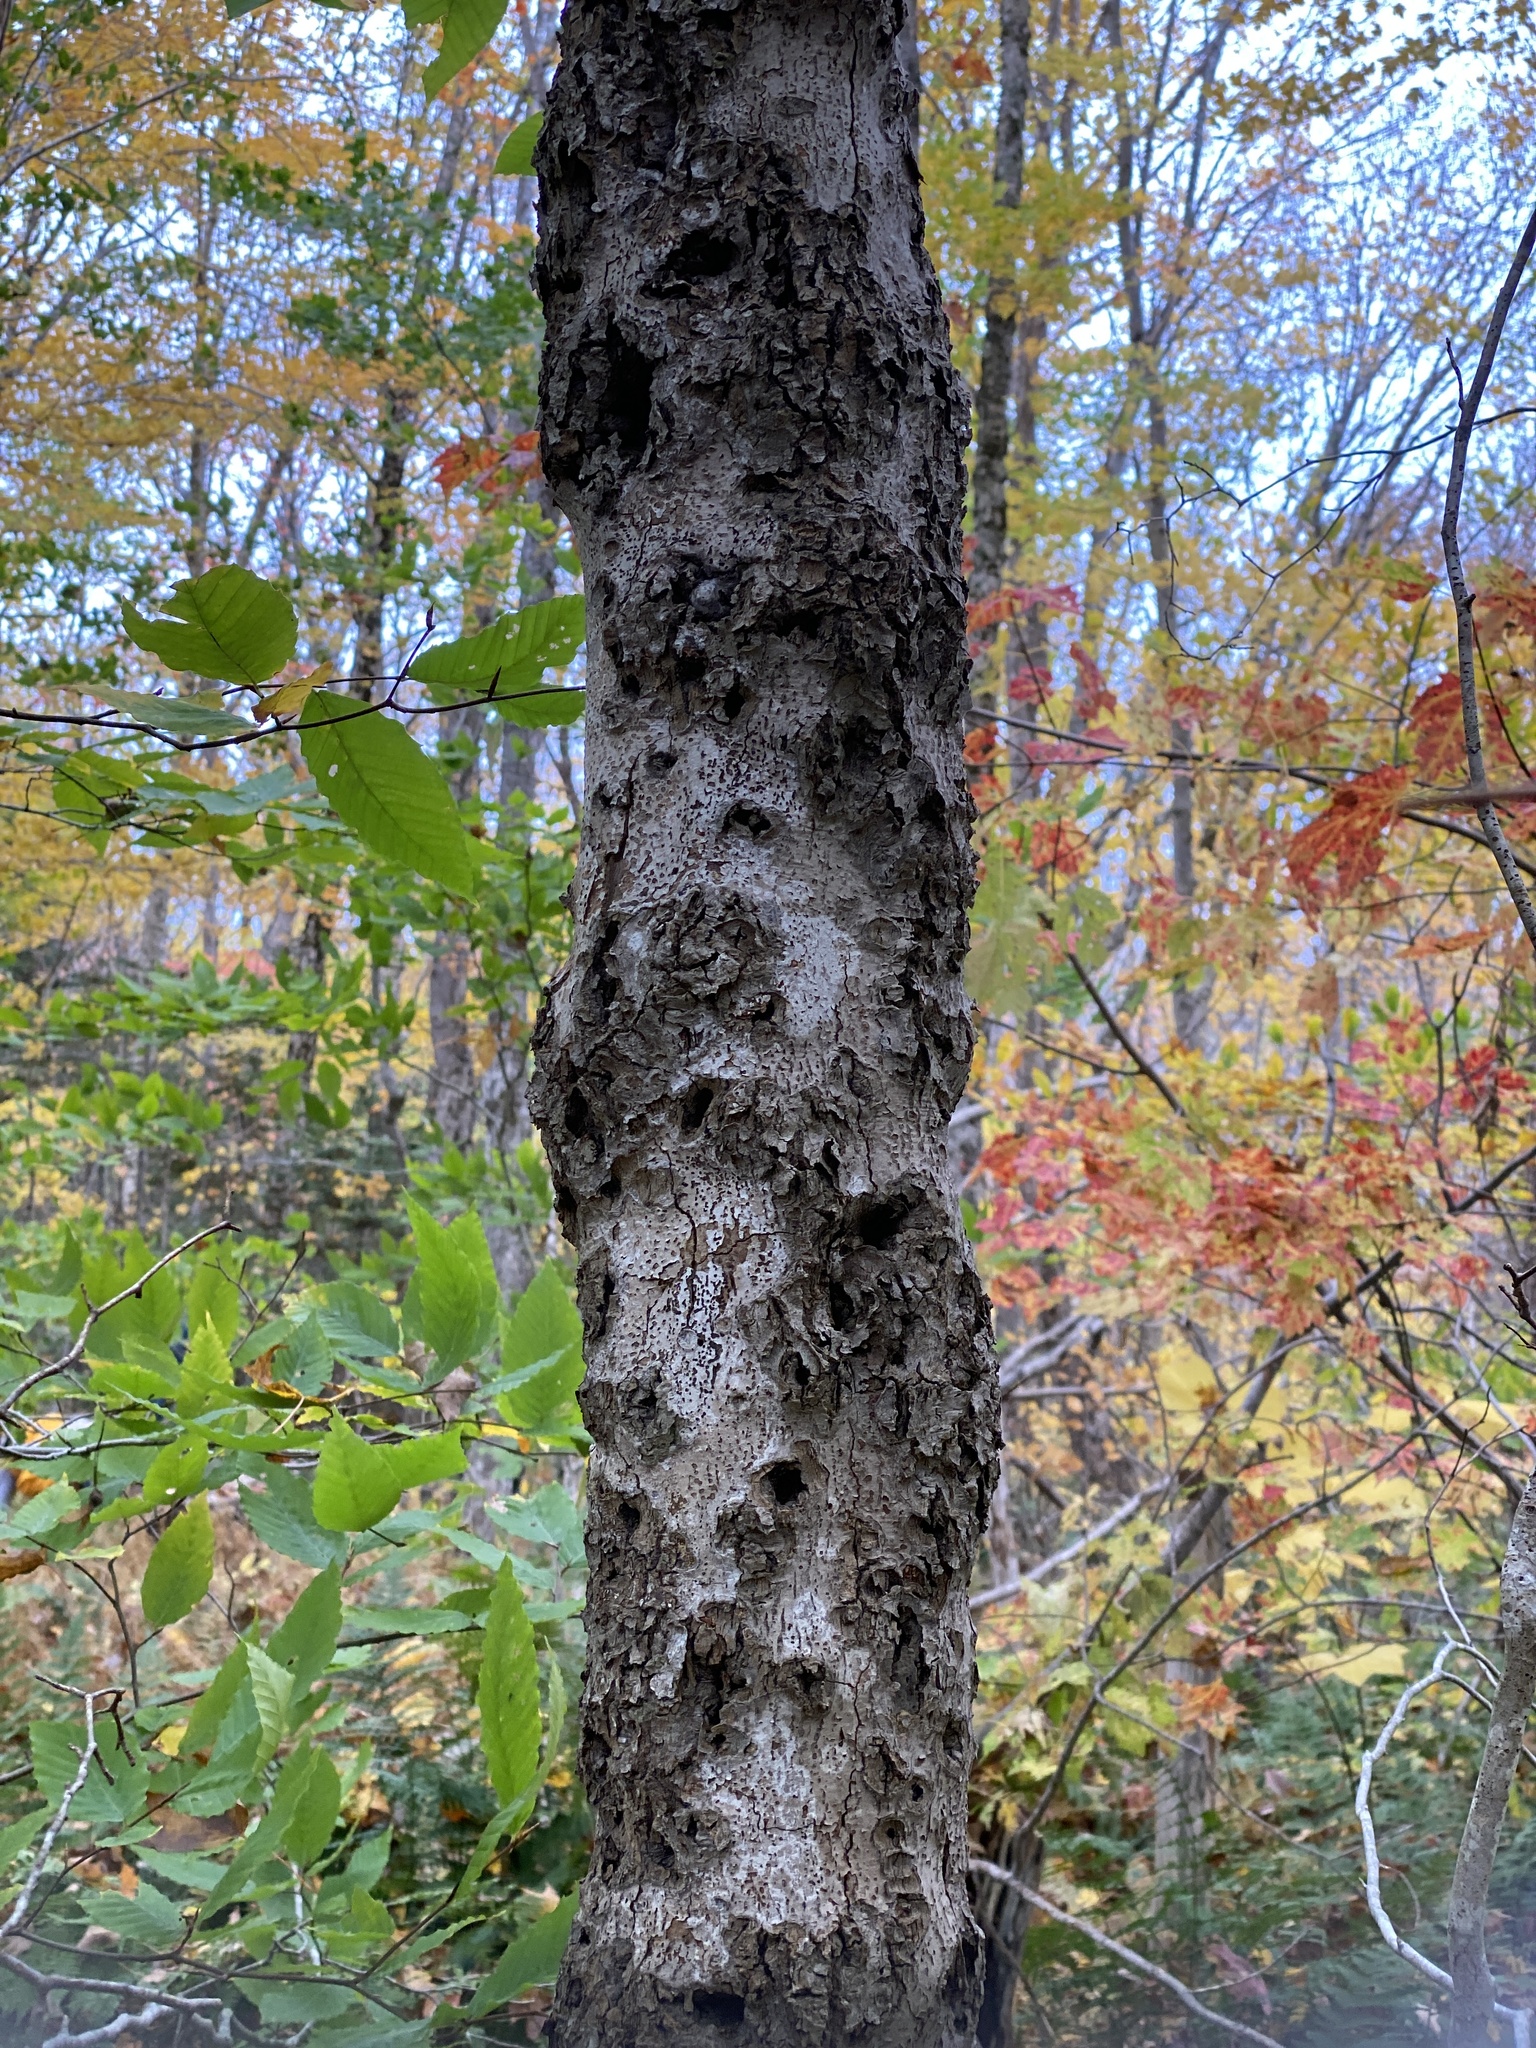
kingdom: Plantae
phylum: Tracheophyta
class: Magnoliopsida
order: Fagales
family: Fagaceae
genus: Fagus
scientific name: Fagus grandifolia
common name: American beech
